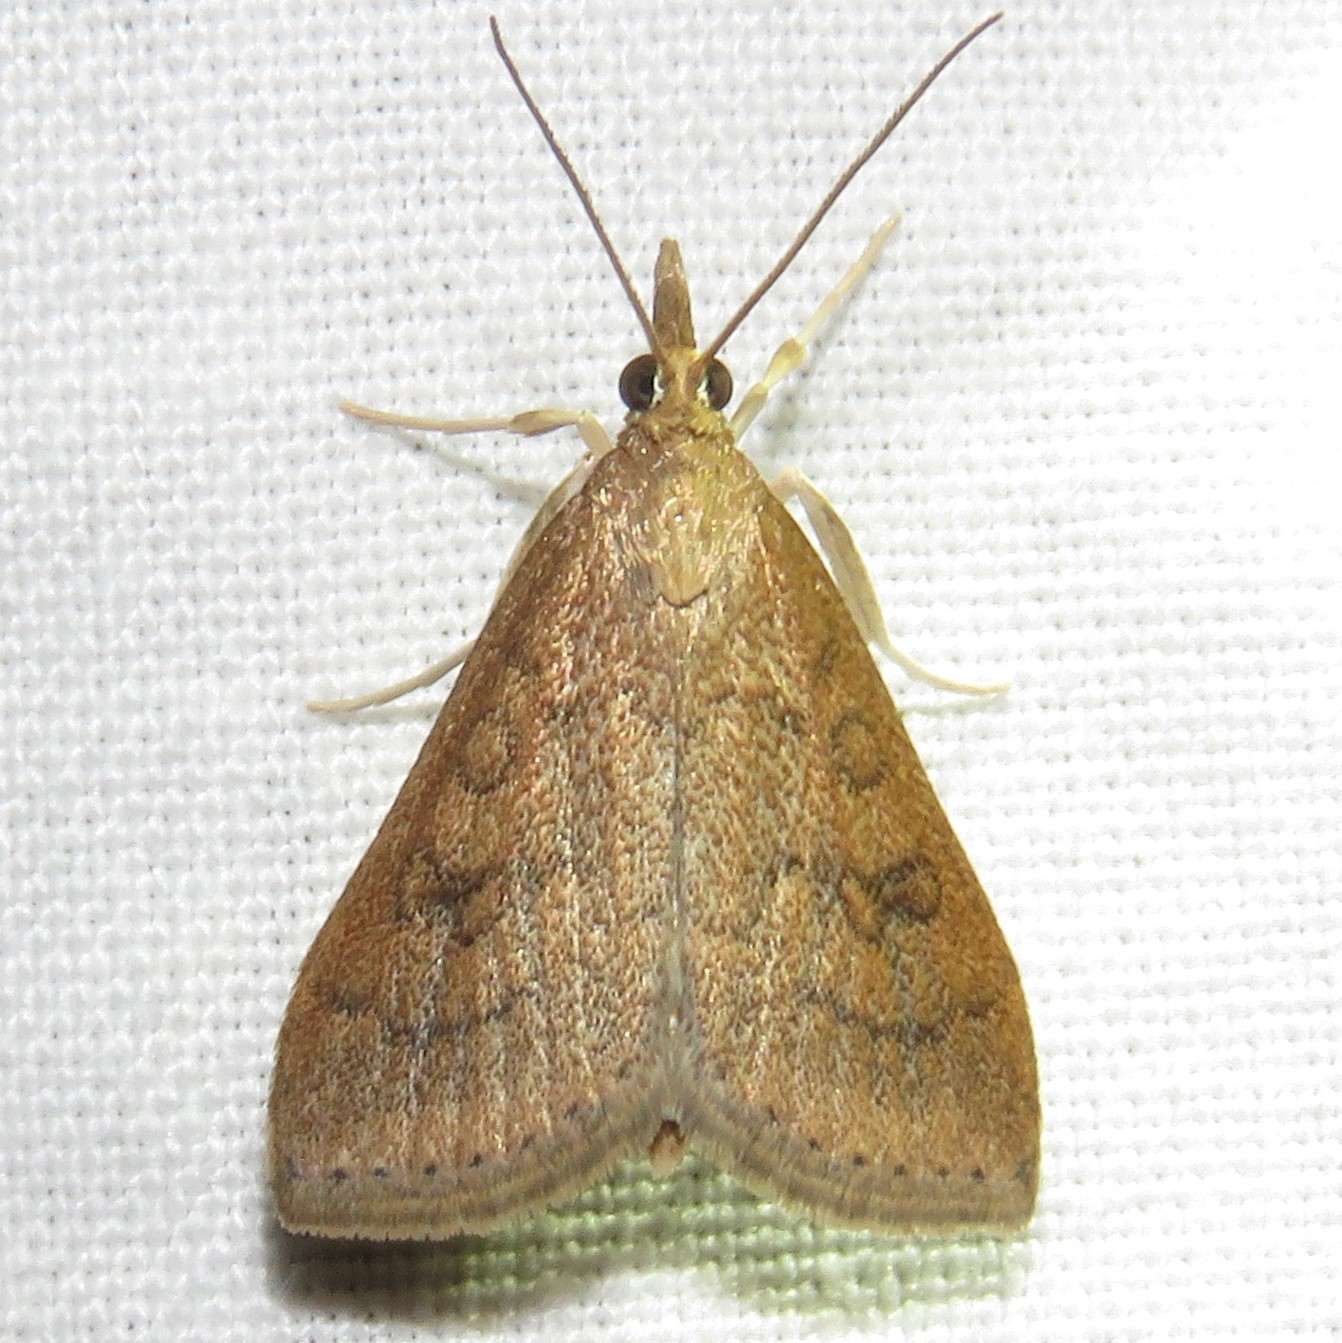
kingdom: Animalia
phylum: Arthropoda
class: Insecta
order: Lepidoptera
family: Crambidae
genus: Udea
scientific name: Udea rubigalis
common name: Celery leaftier moth
